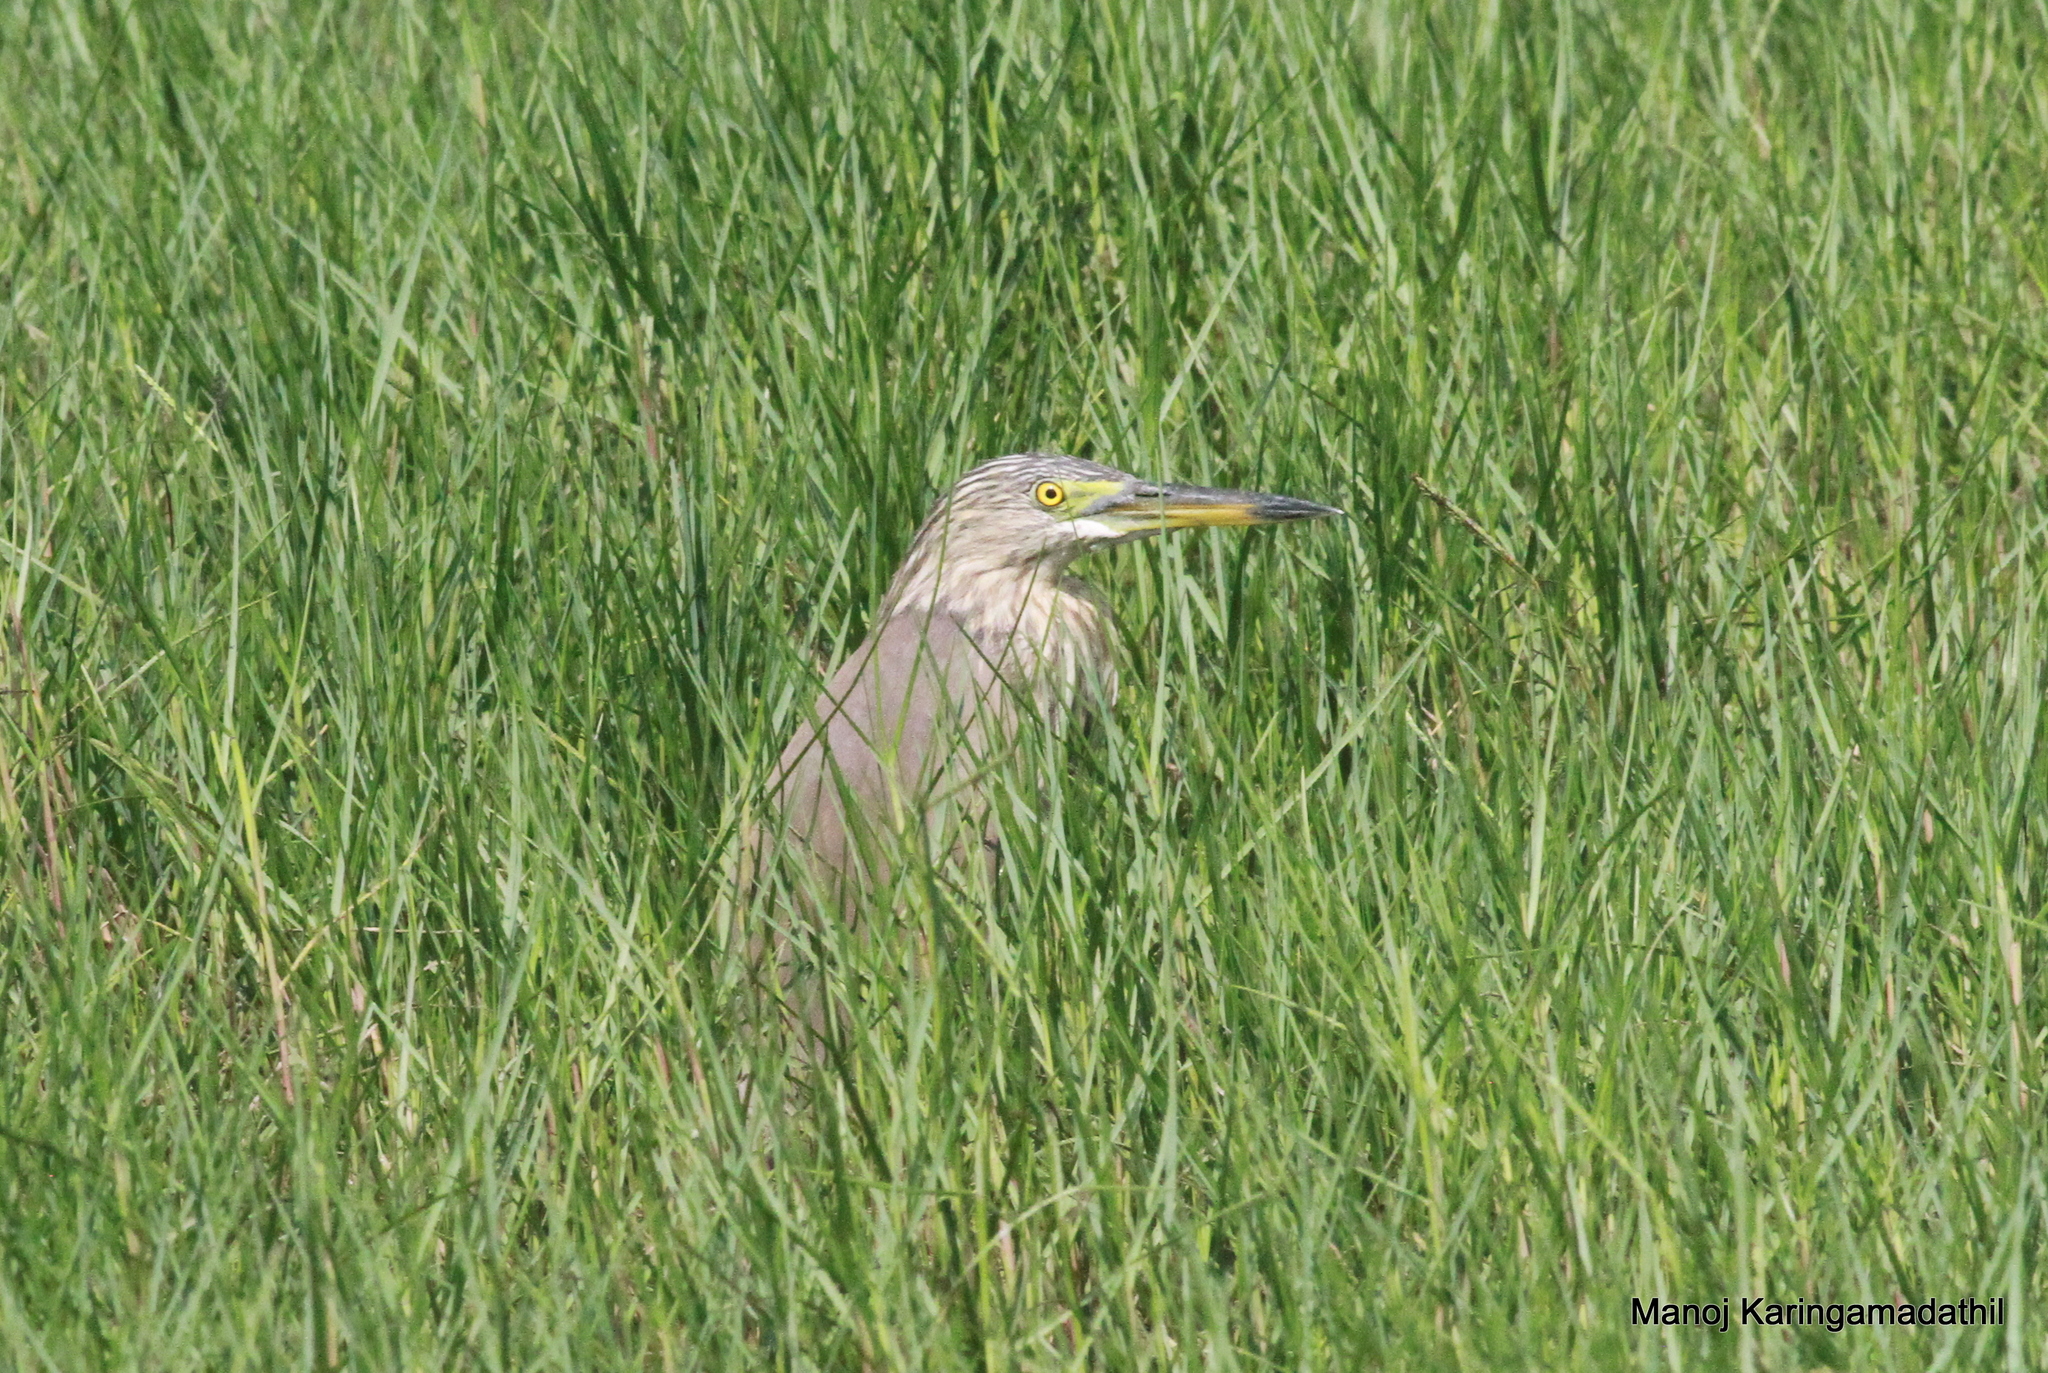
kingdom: Animalia
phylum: Chordata
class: Aves
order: Pelecaniformes
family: Ardeidae
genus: Ardeola
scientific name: Ardeola grayii
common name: Indian pond heron
